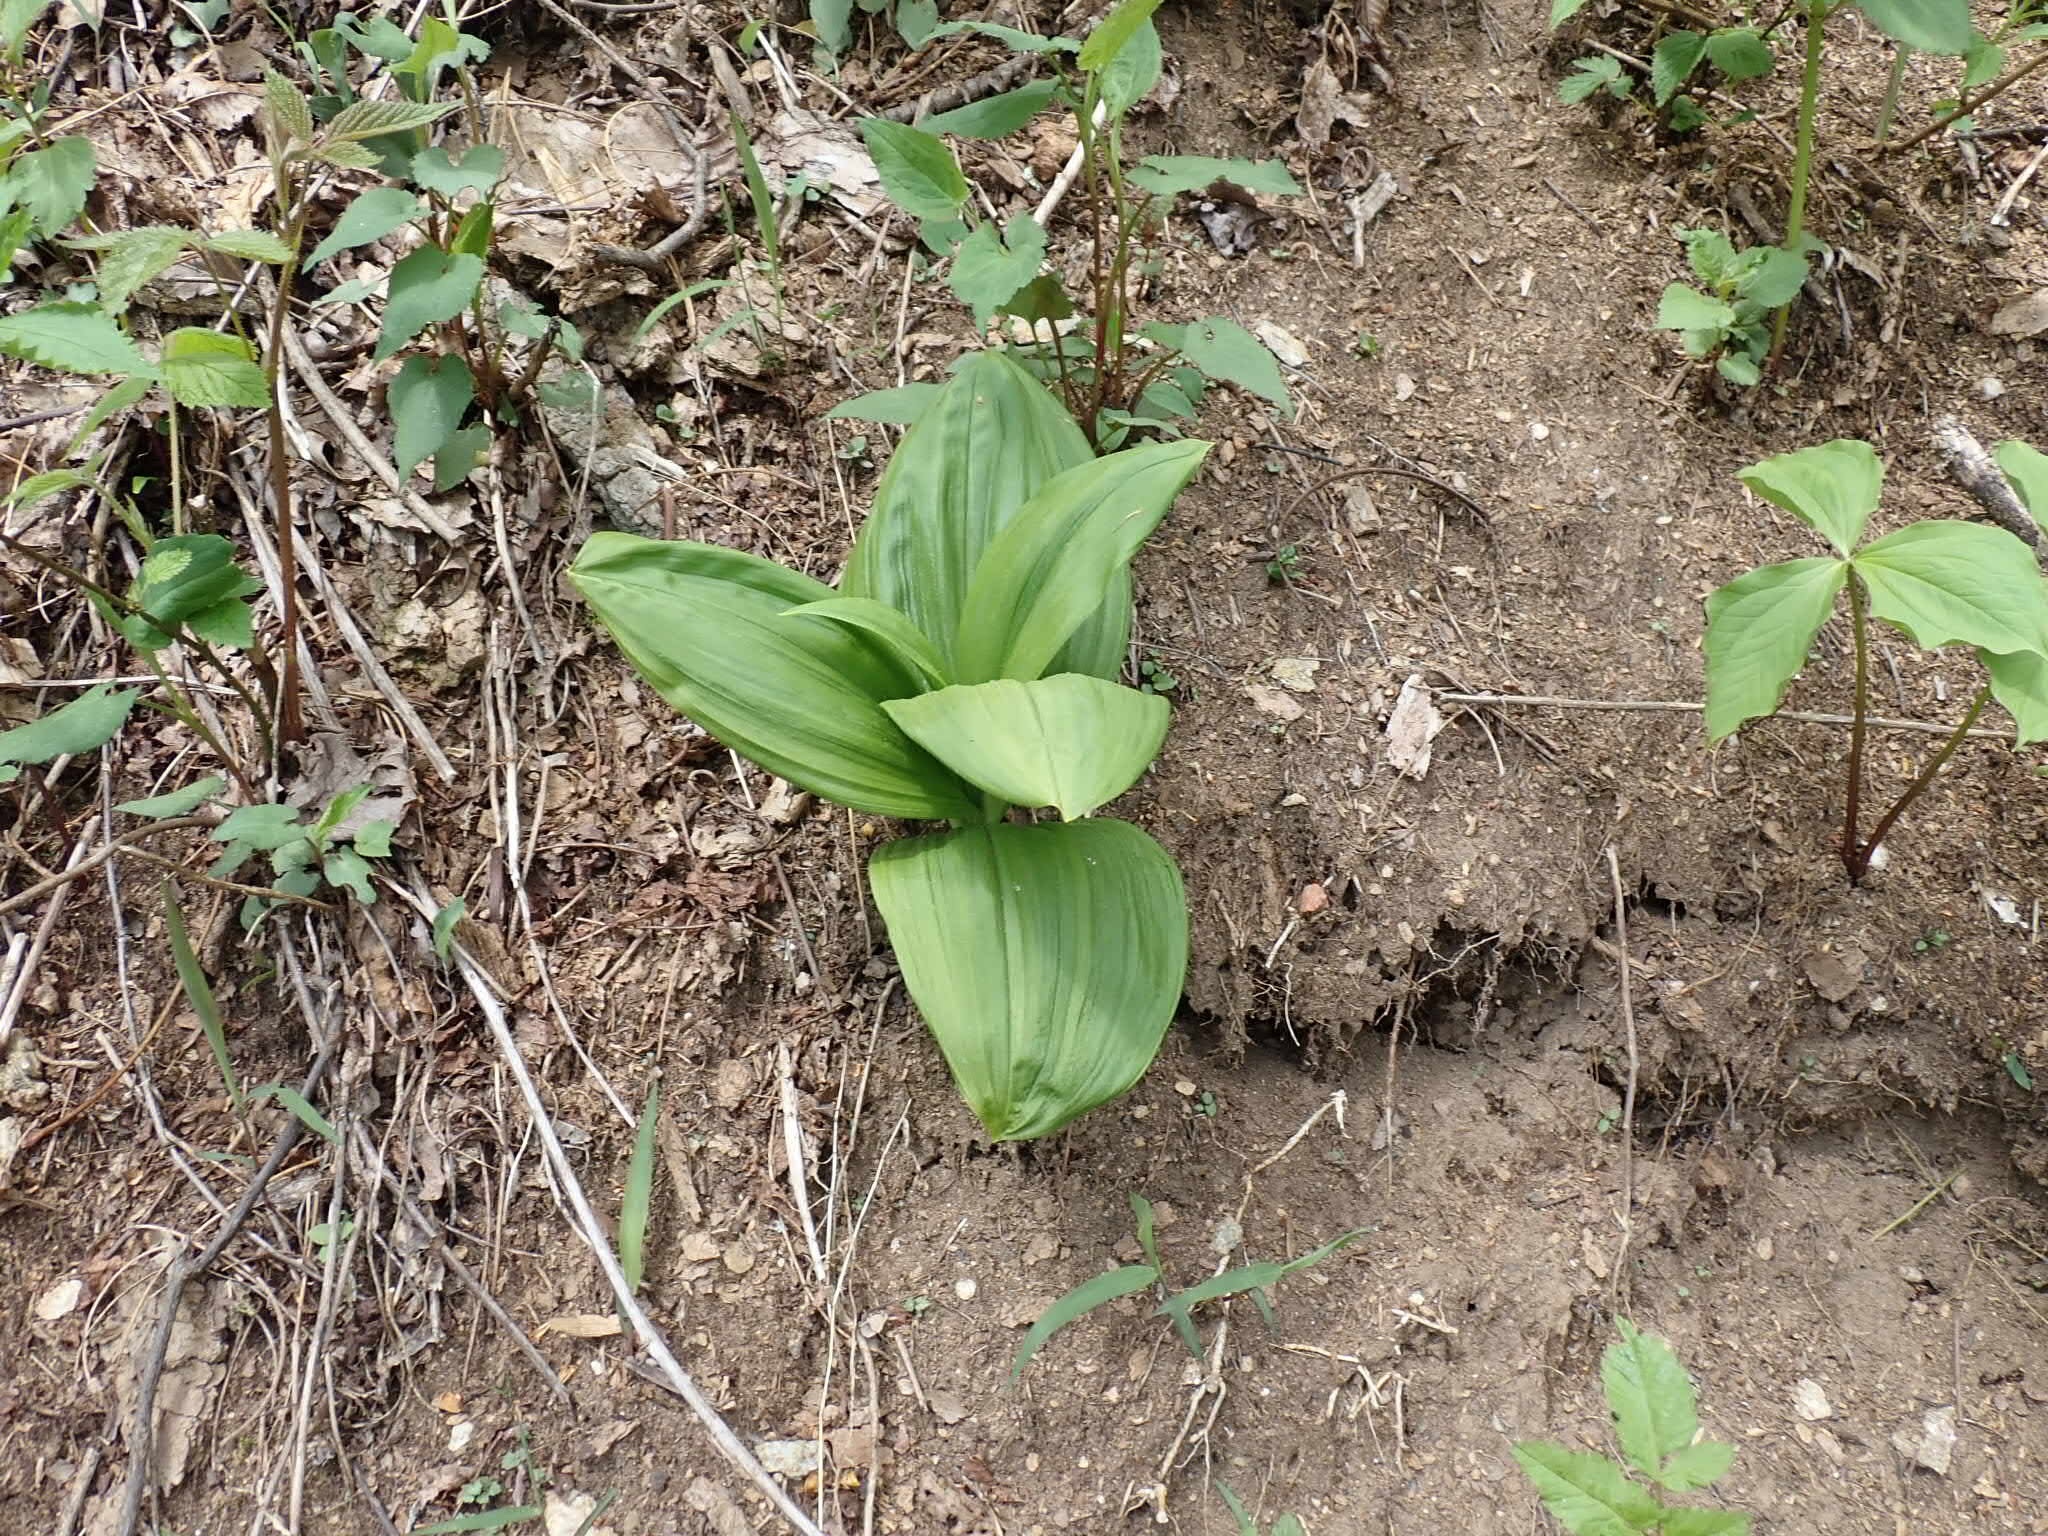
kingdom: Plantae
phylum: Tracheophyta
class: Liliopsida
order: Liliales
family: Melanthiaceae
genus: Veratrum
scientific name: Veratrum viride
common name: American false hellebore
